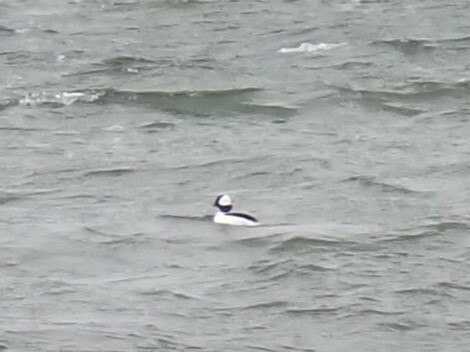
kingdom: Animalia
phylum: Chordata
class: Aves
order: Anseriformes
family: Anatidae
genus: Bucephala
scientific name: Bucephala albeola
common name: Bufflehead
